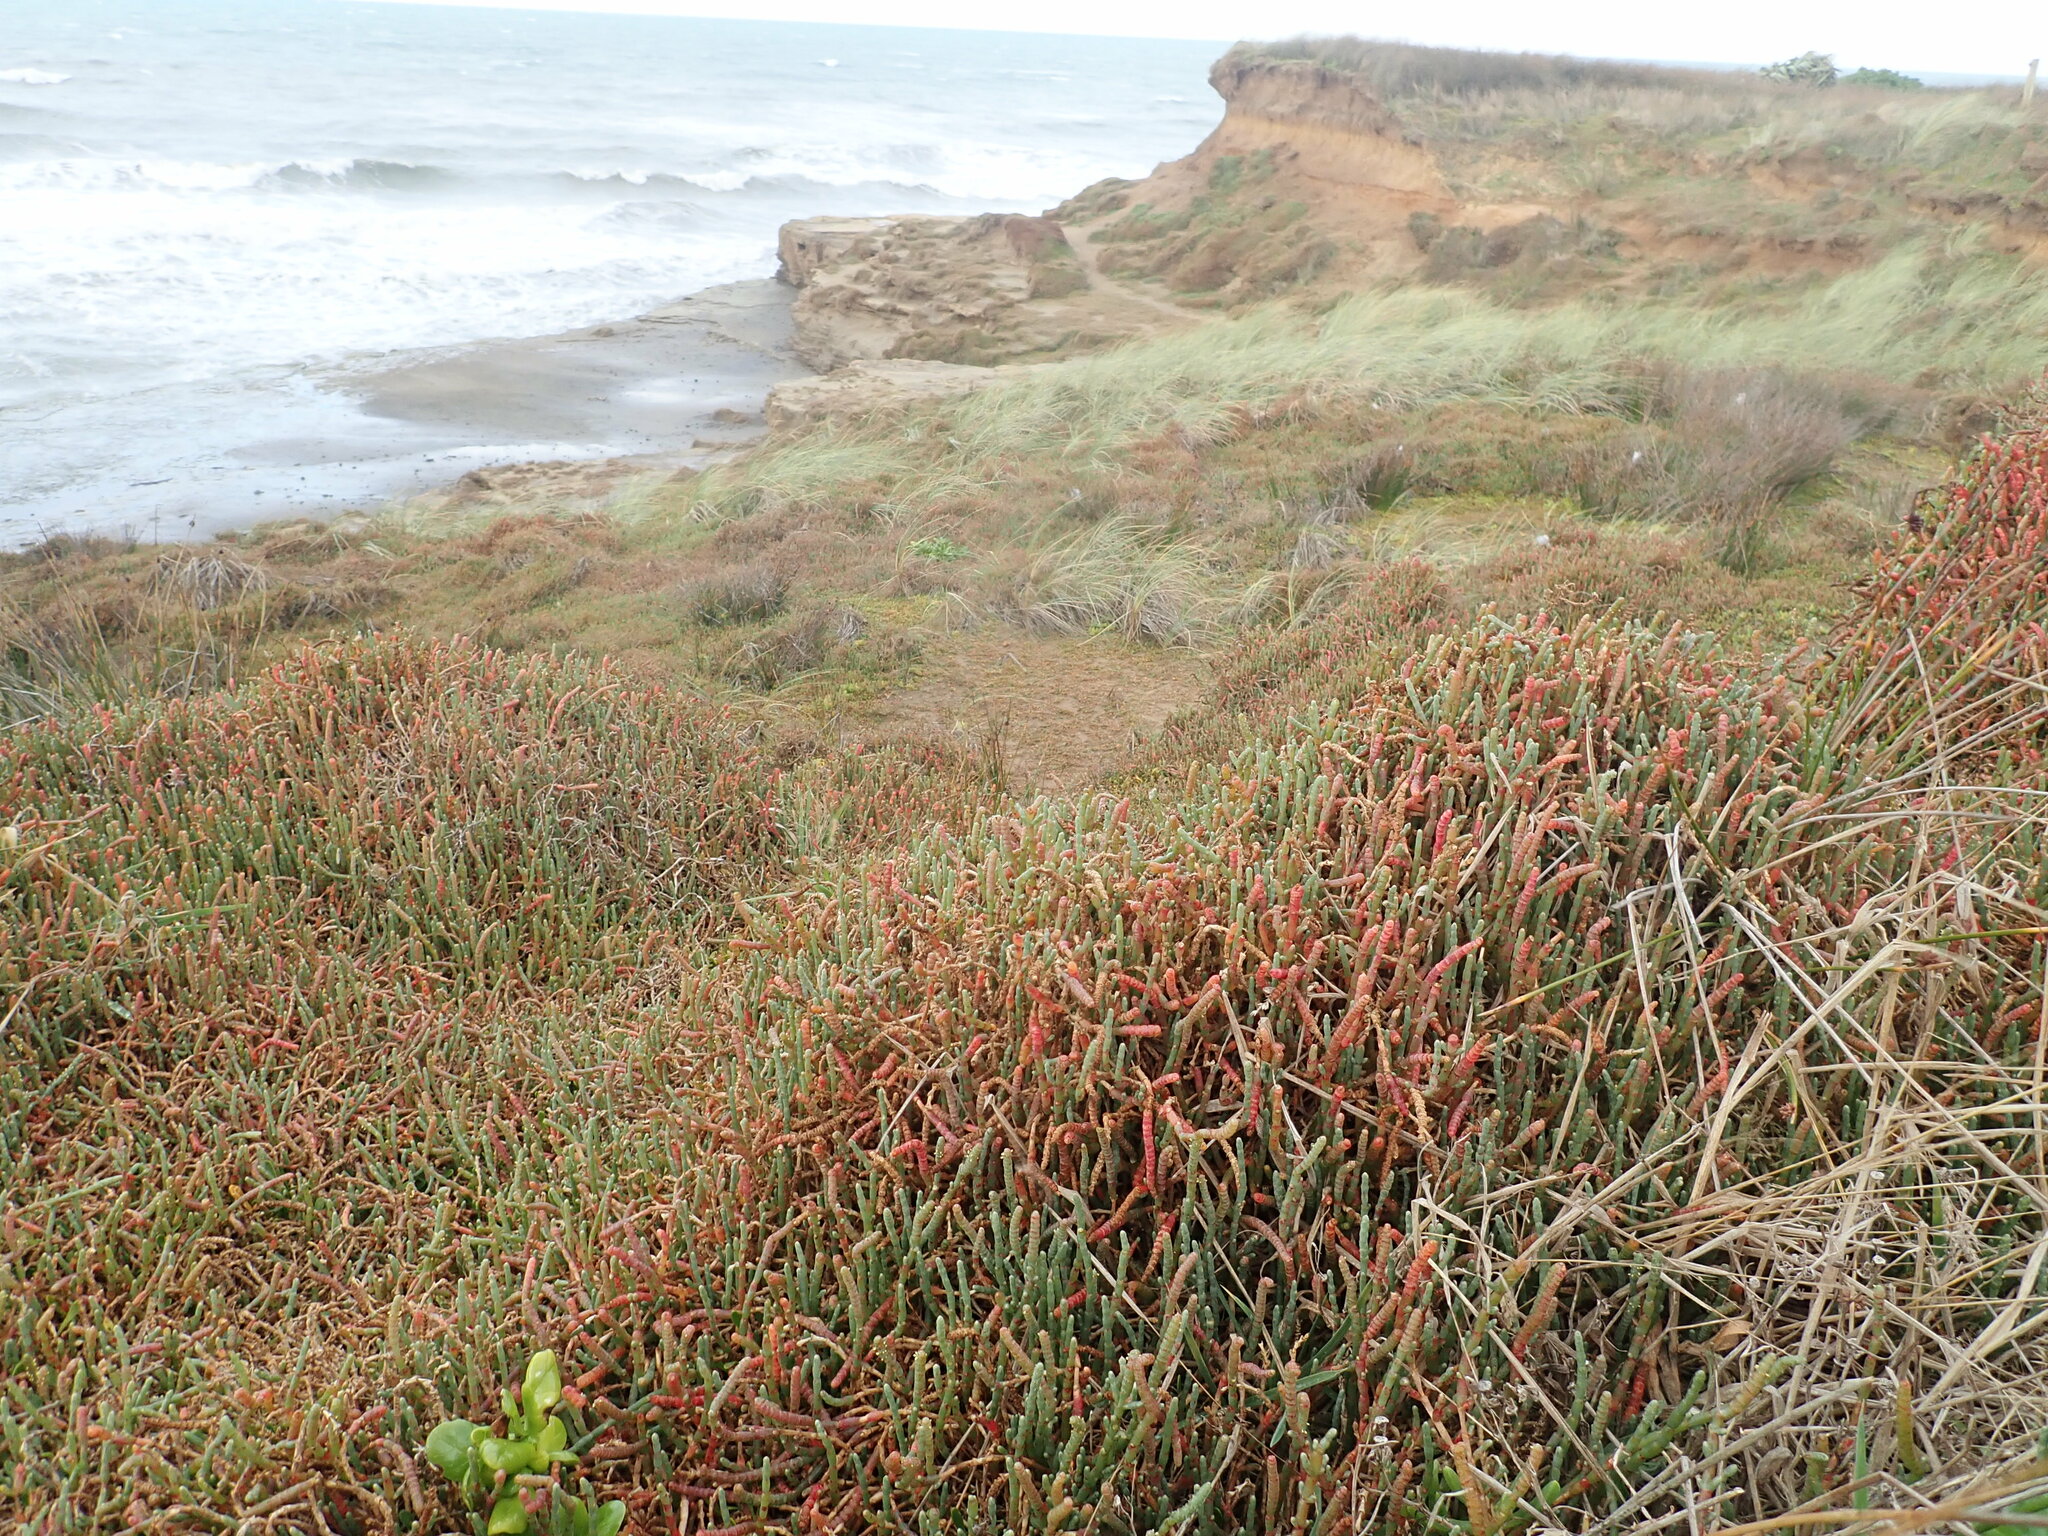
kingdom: Plantae
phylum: Tracheophyta
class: Magnoliopsida
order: Caryophyllales
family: Amaranthaceae
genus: Salicornia
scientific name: Salicornia quinqueflora
